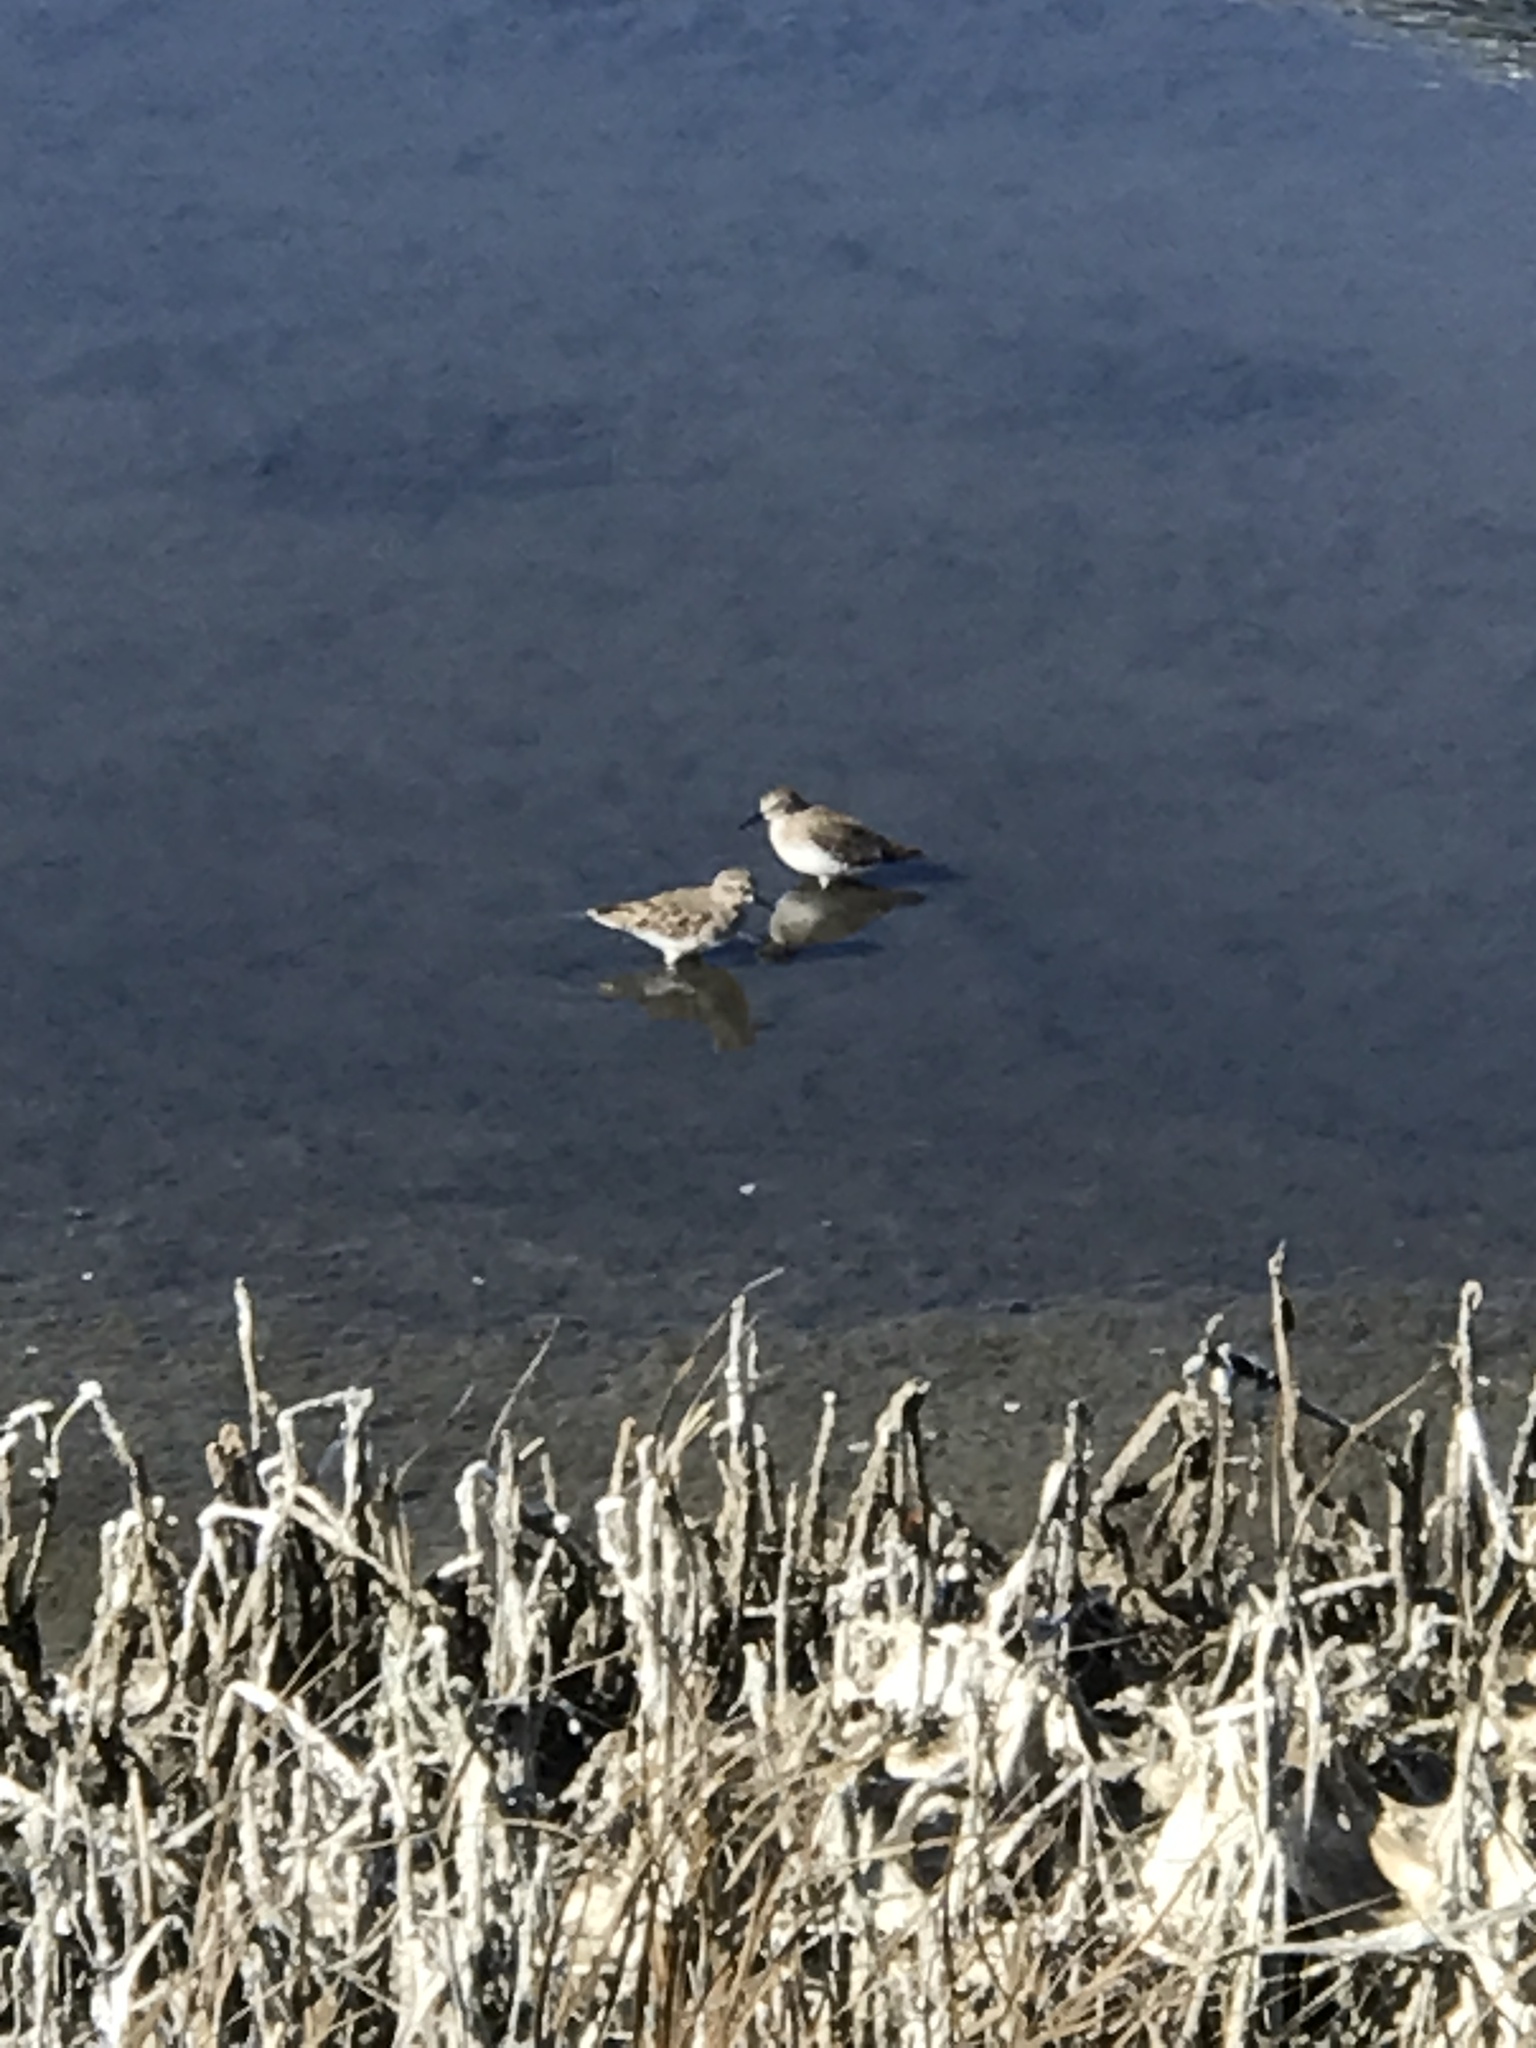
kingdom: Animalia
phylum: Chordata
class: Aves
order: Charadriiformes
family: Scolopacidae
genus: Calidris
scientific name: Calidris minutilla
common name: Least sandpiper
